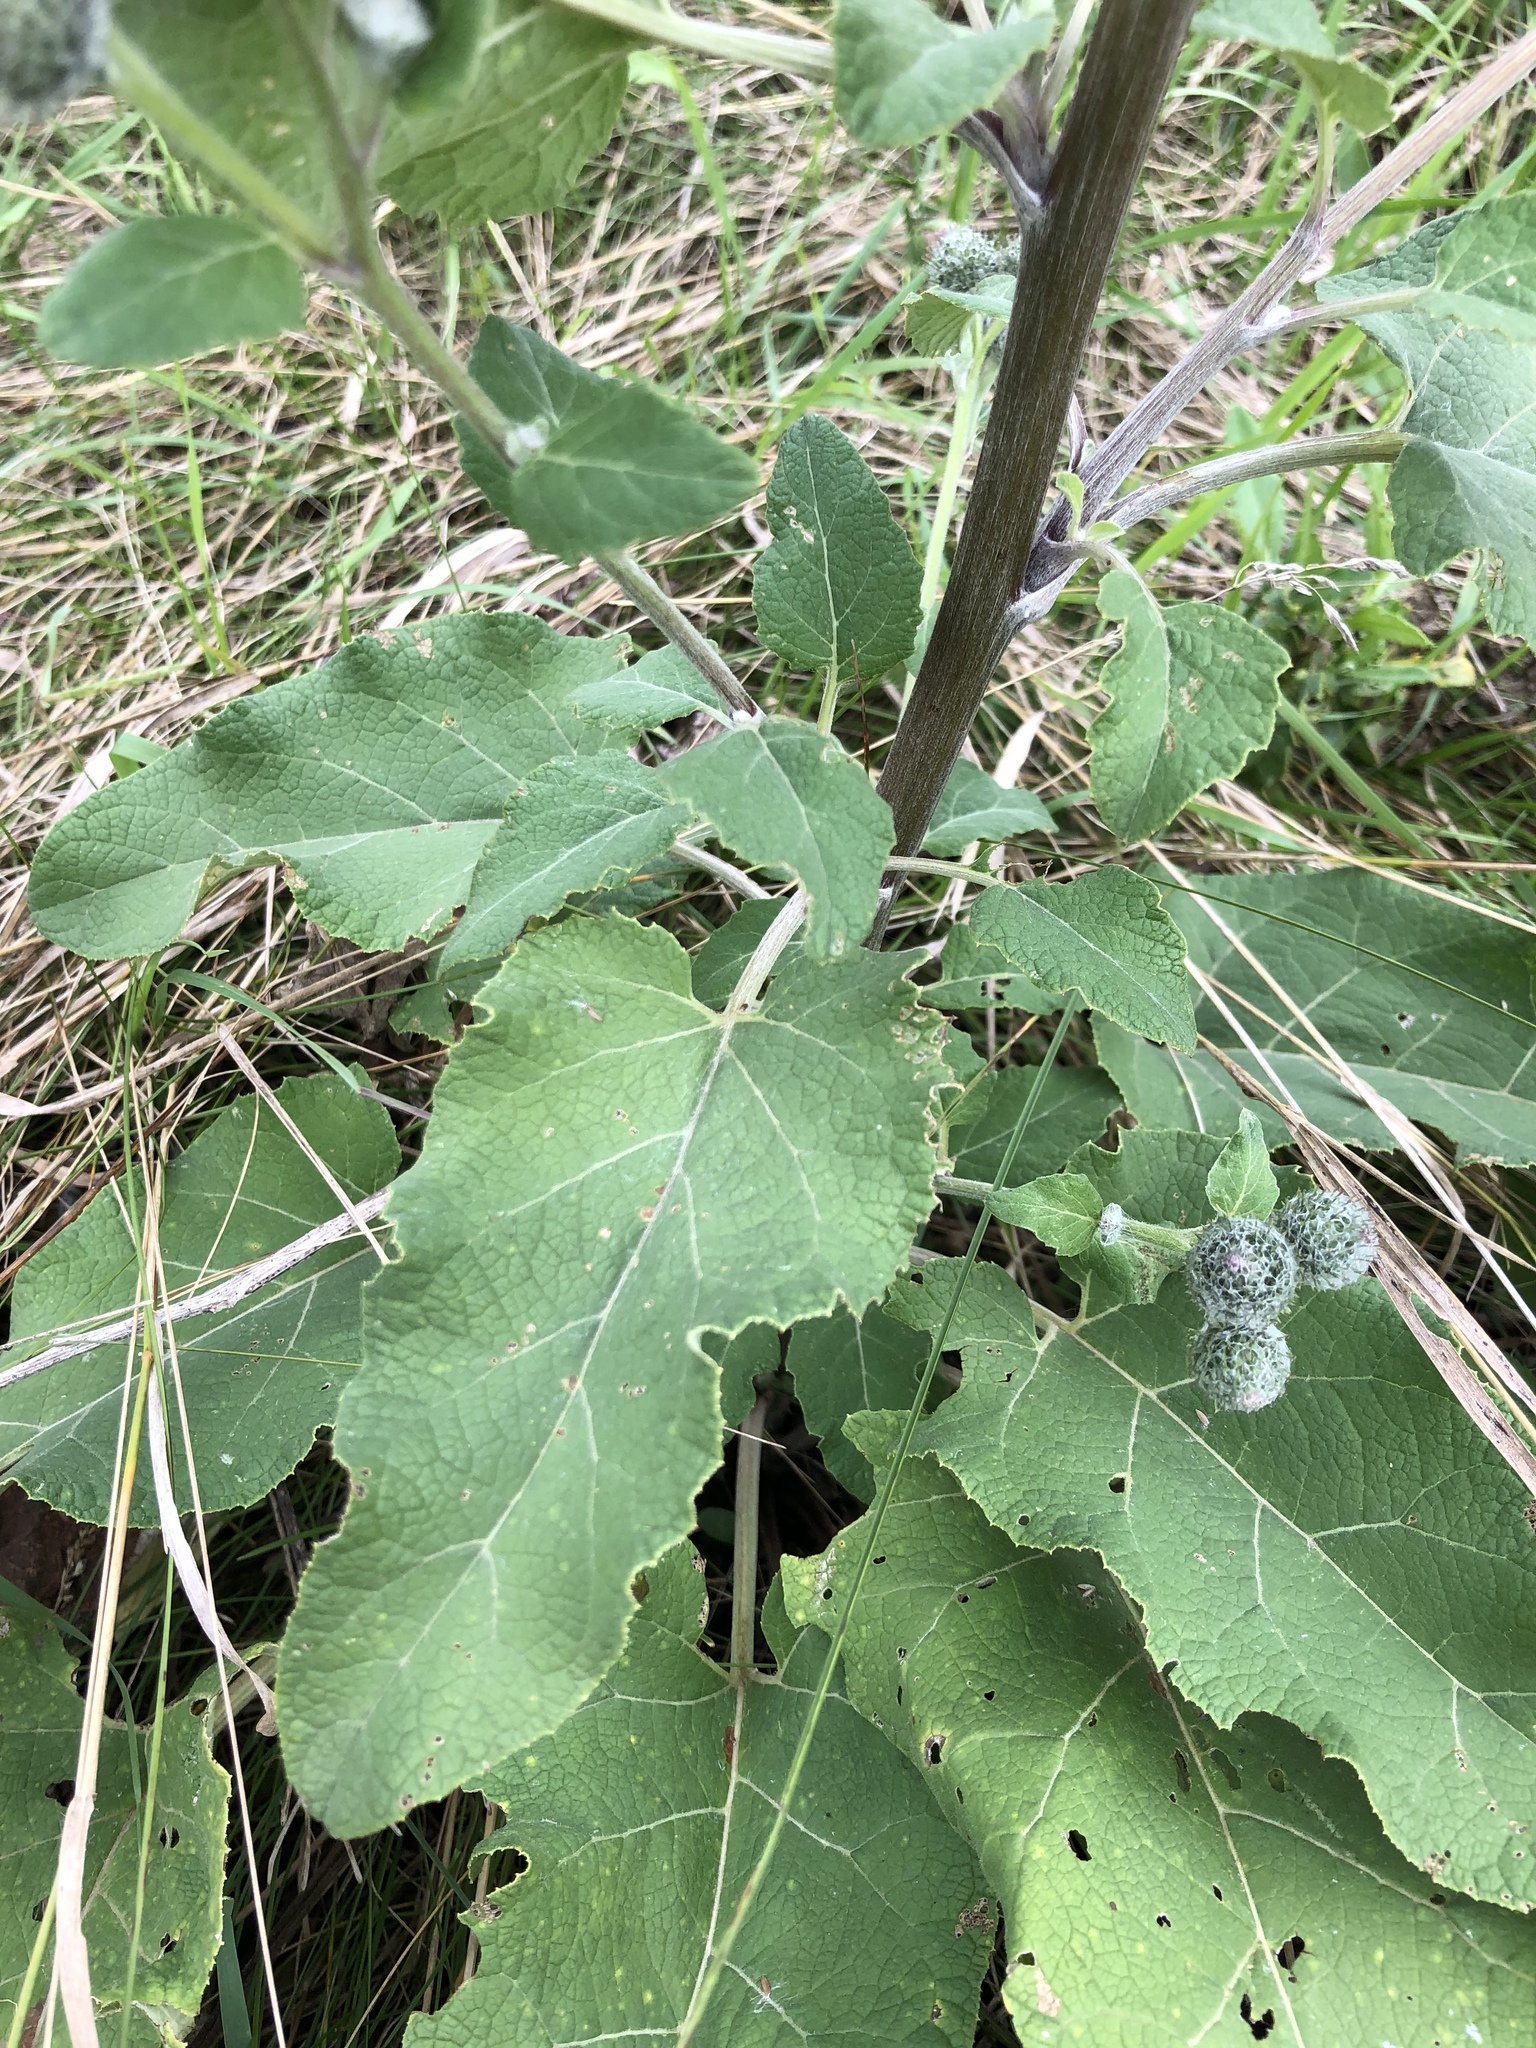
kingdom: Plantae
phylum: Tracheophyta
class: Magnoliopsida
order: Asterales
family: Asteraceae
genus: Arctium
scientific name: Arctium tomentosum
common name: Woolly burdock
